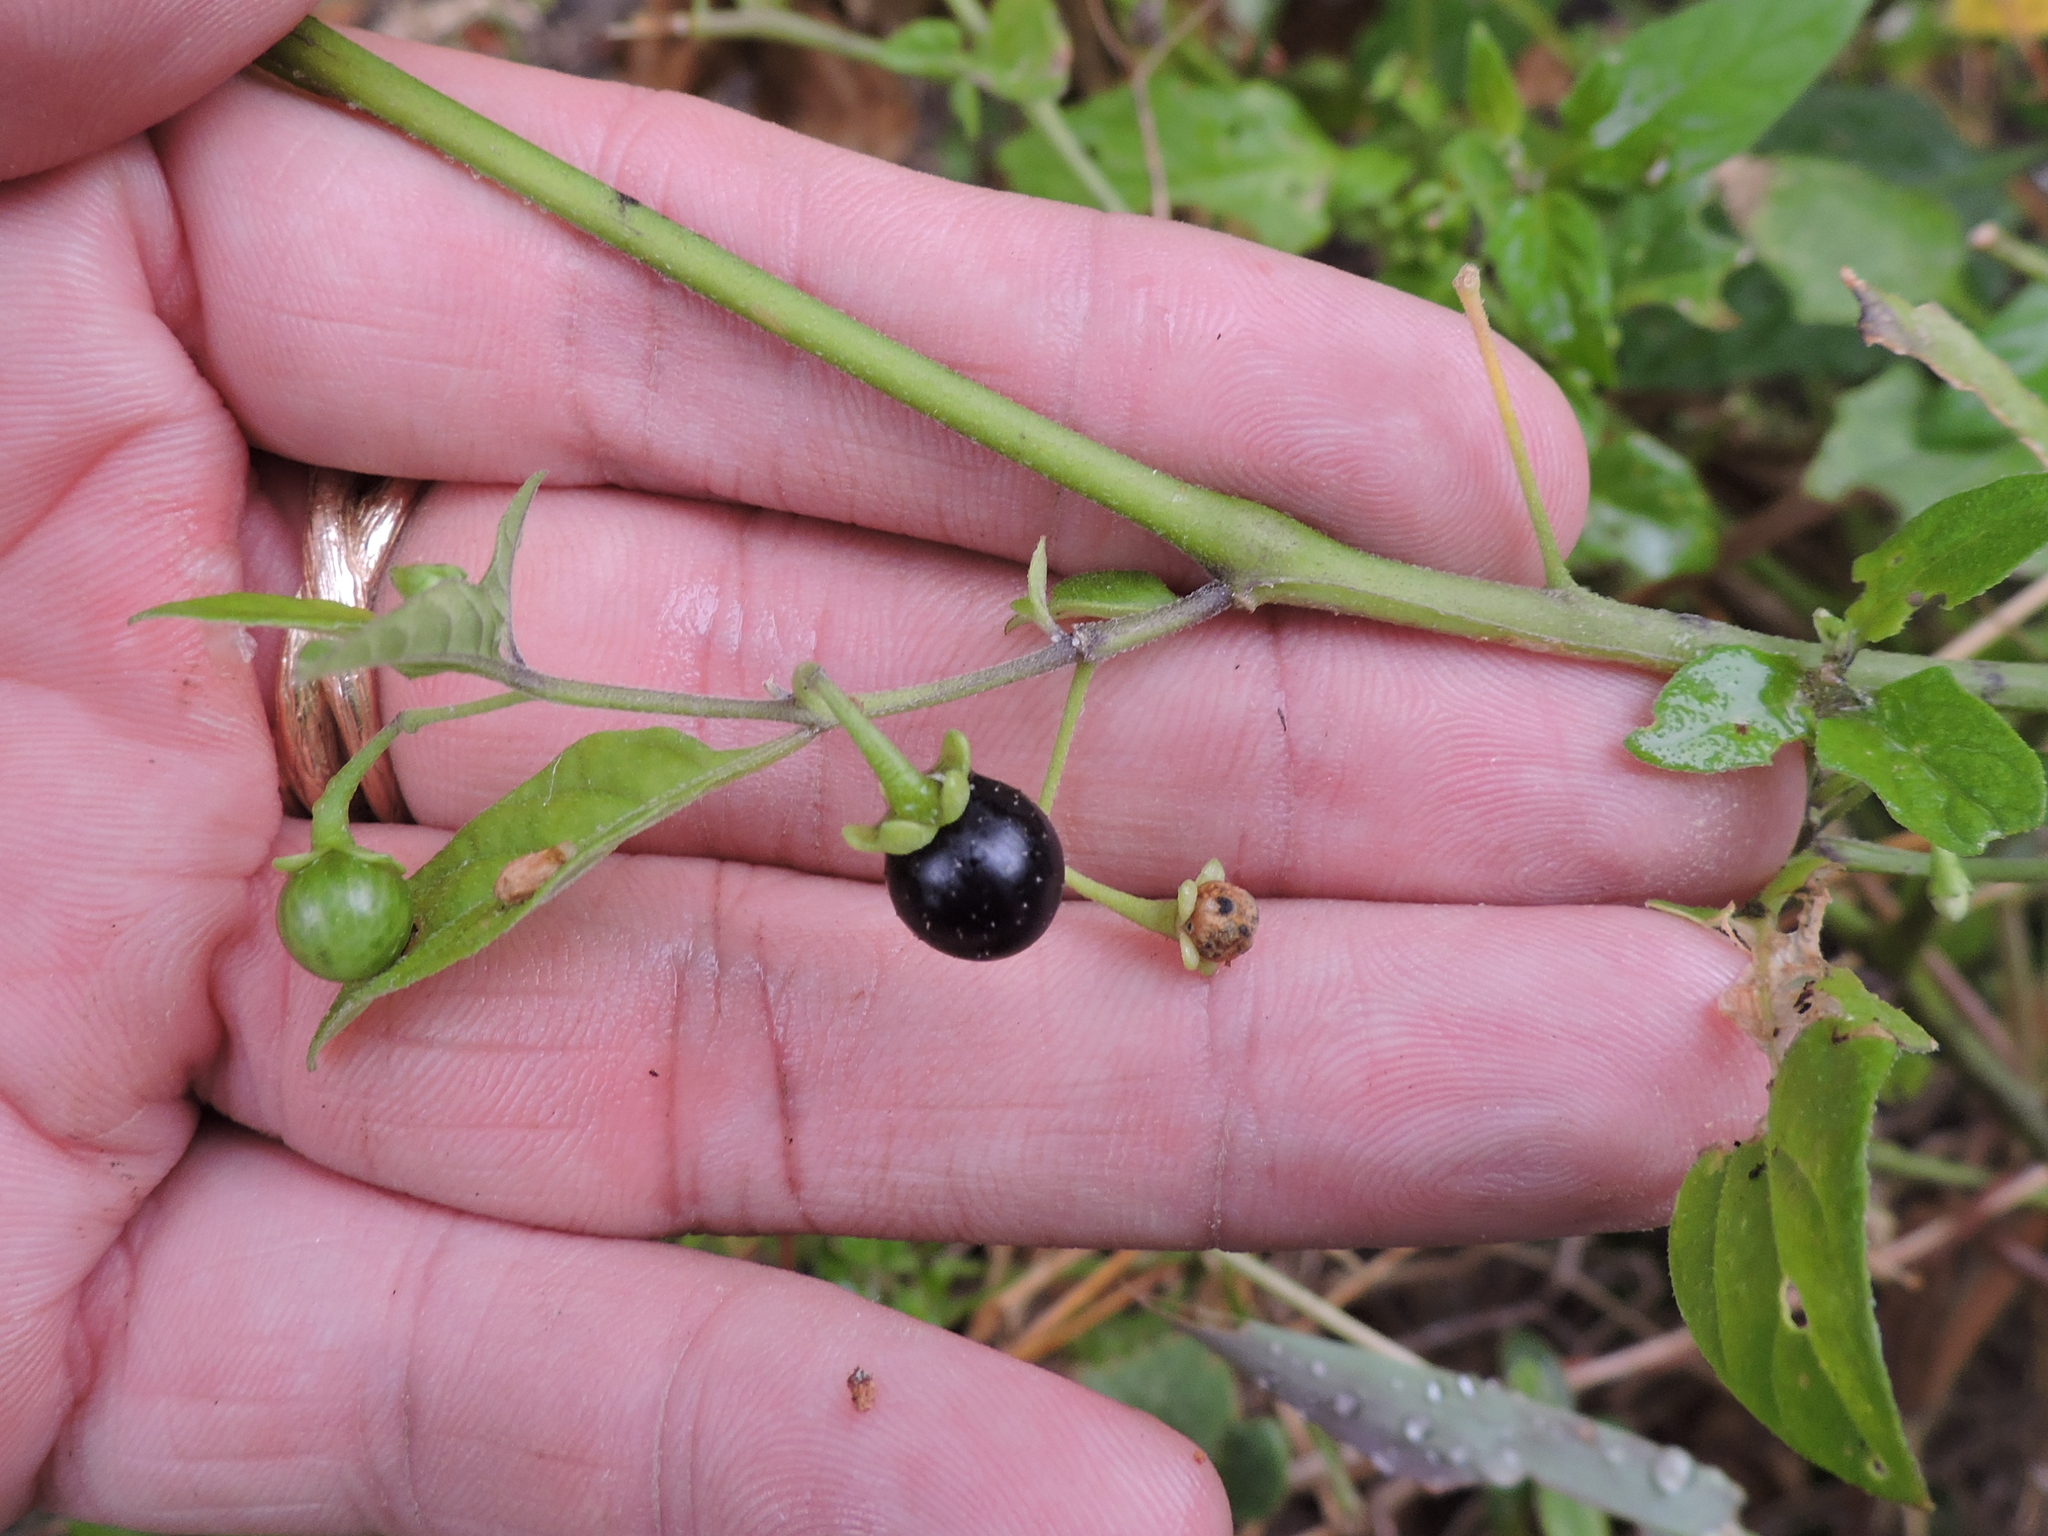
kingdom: Plantae
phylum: Tracheophyta
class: Magnoliopsida
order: Solanales
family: Solanaceae
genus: Solanum
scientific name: Solanum emulans
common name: Eastern black nightshade
